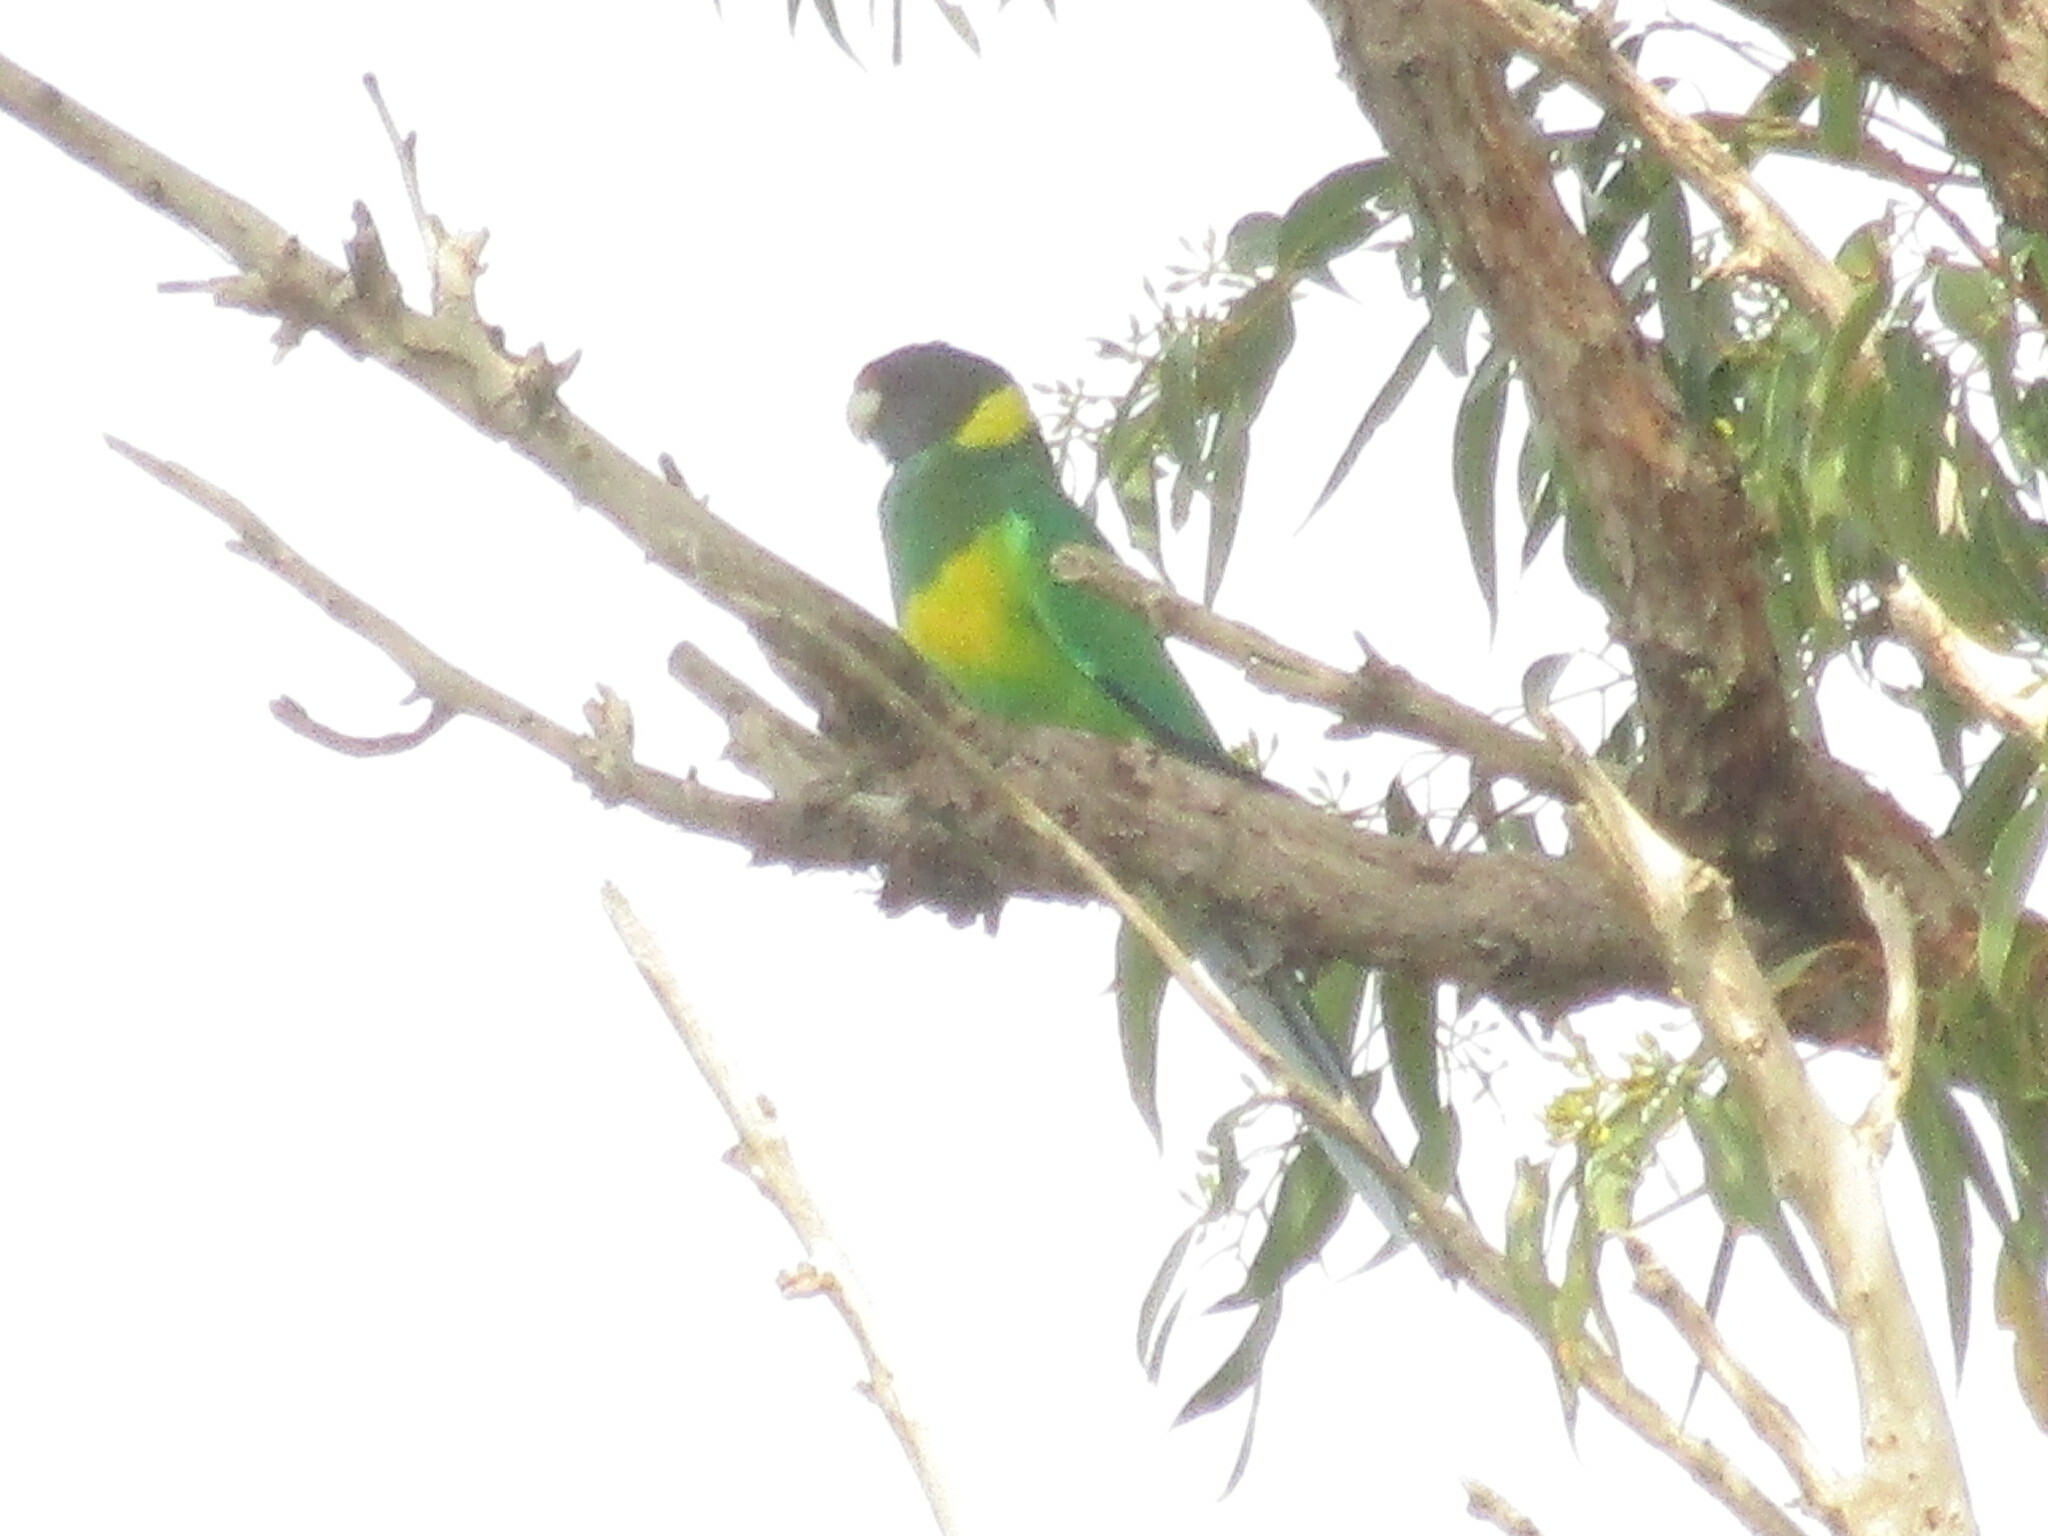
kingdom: Animalia
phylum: Chordata
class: Aves
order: Psittaciformes
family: Psittacidae
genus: Barnardius
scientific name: Barnardius
